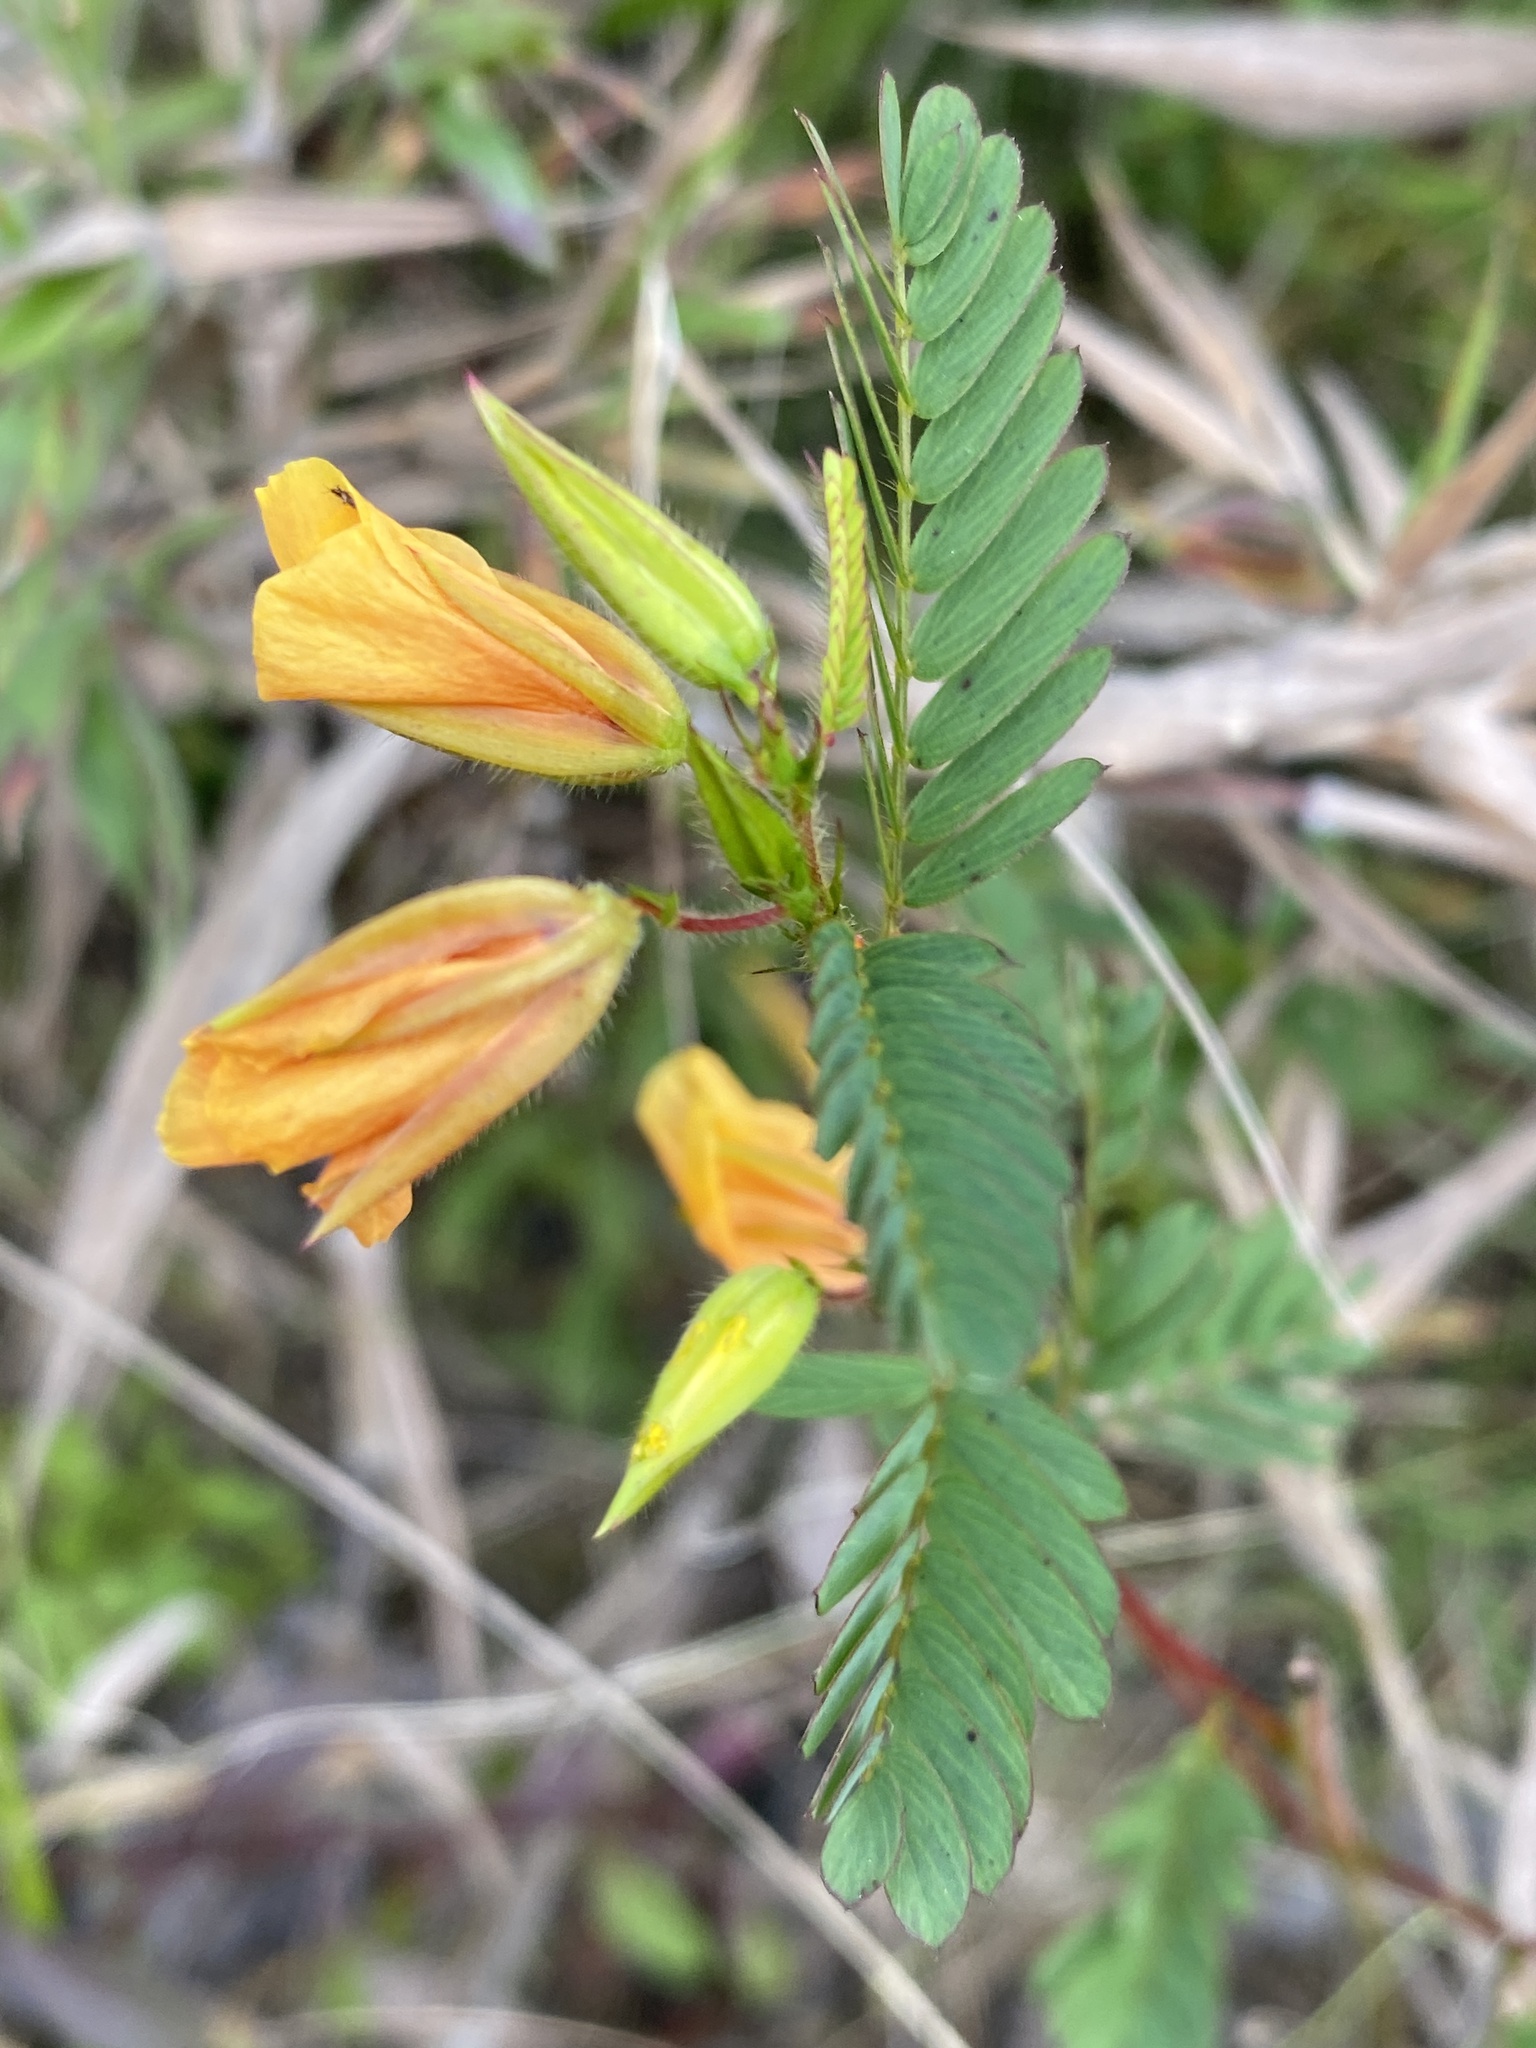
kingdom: Plantae
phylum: Tracheophyta
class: Magnoliopsida
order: Fabales
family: Fabaceae
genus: Chamaecrista
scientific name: Chamaecrista fasciculata
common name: Golden cassia
